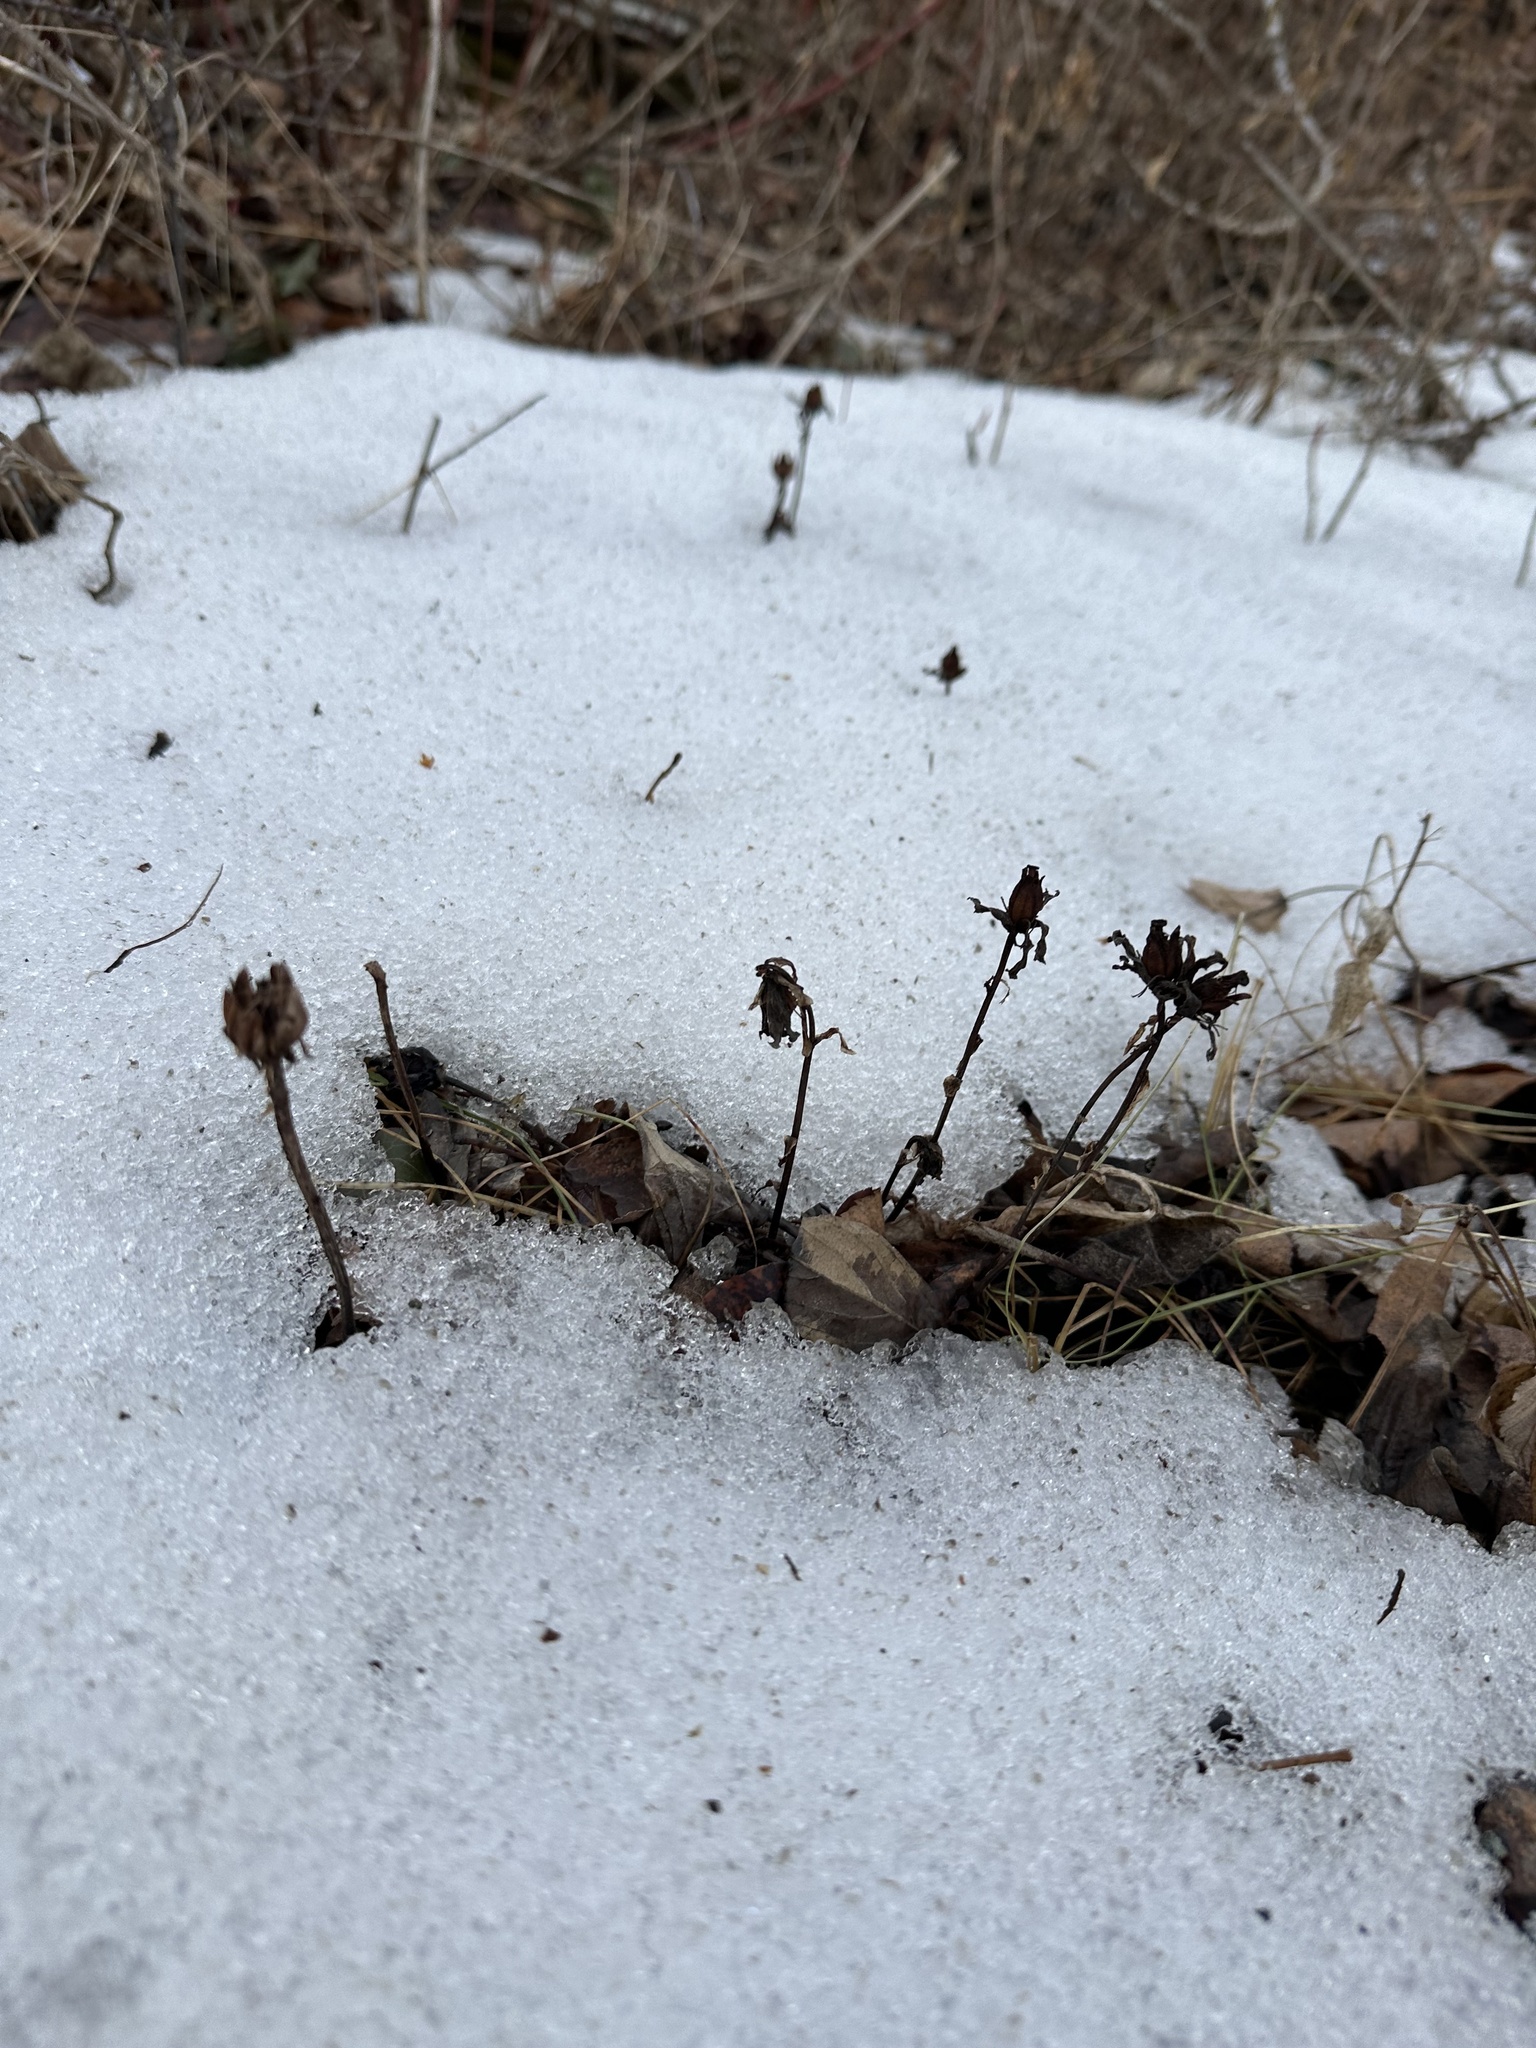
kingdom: Plantae
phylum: Tracheophyta
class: Magnoliopsida
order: Ericales
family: Ericaceae
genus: Monotropa
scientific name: Monotropa uniflora
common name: Convulsion root
